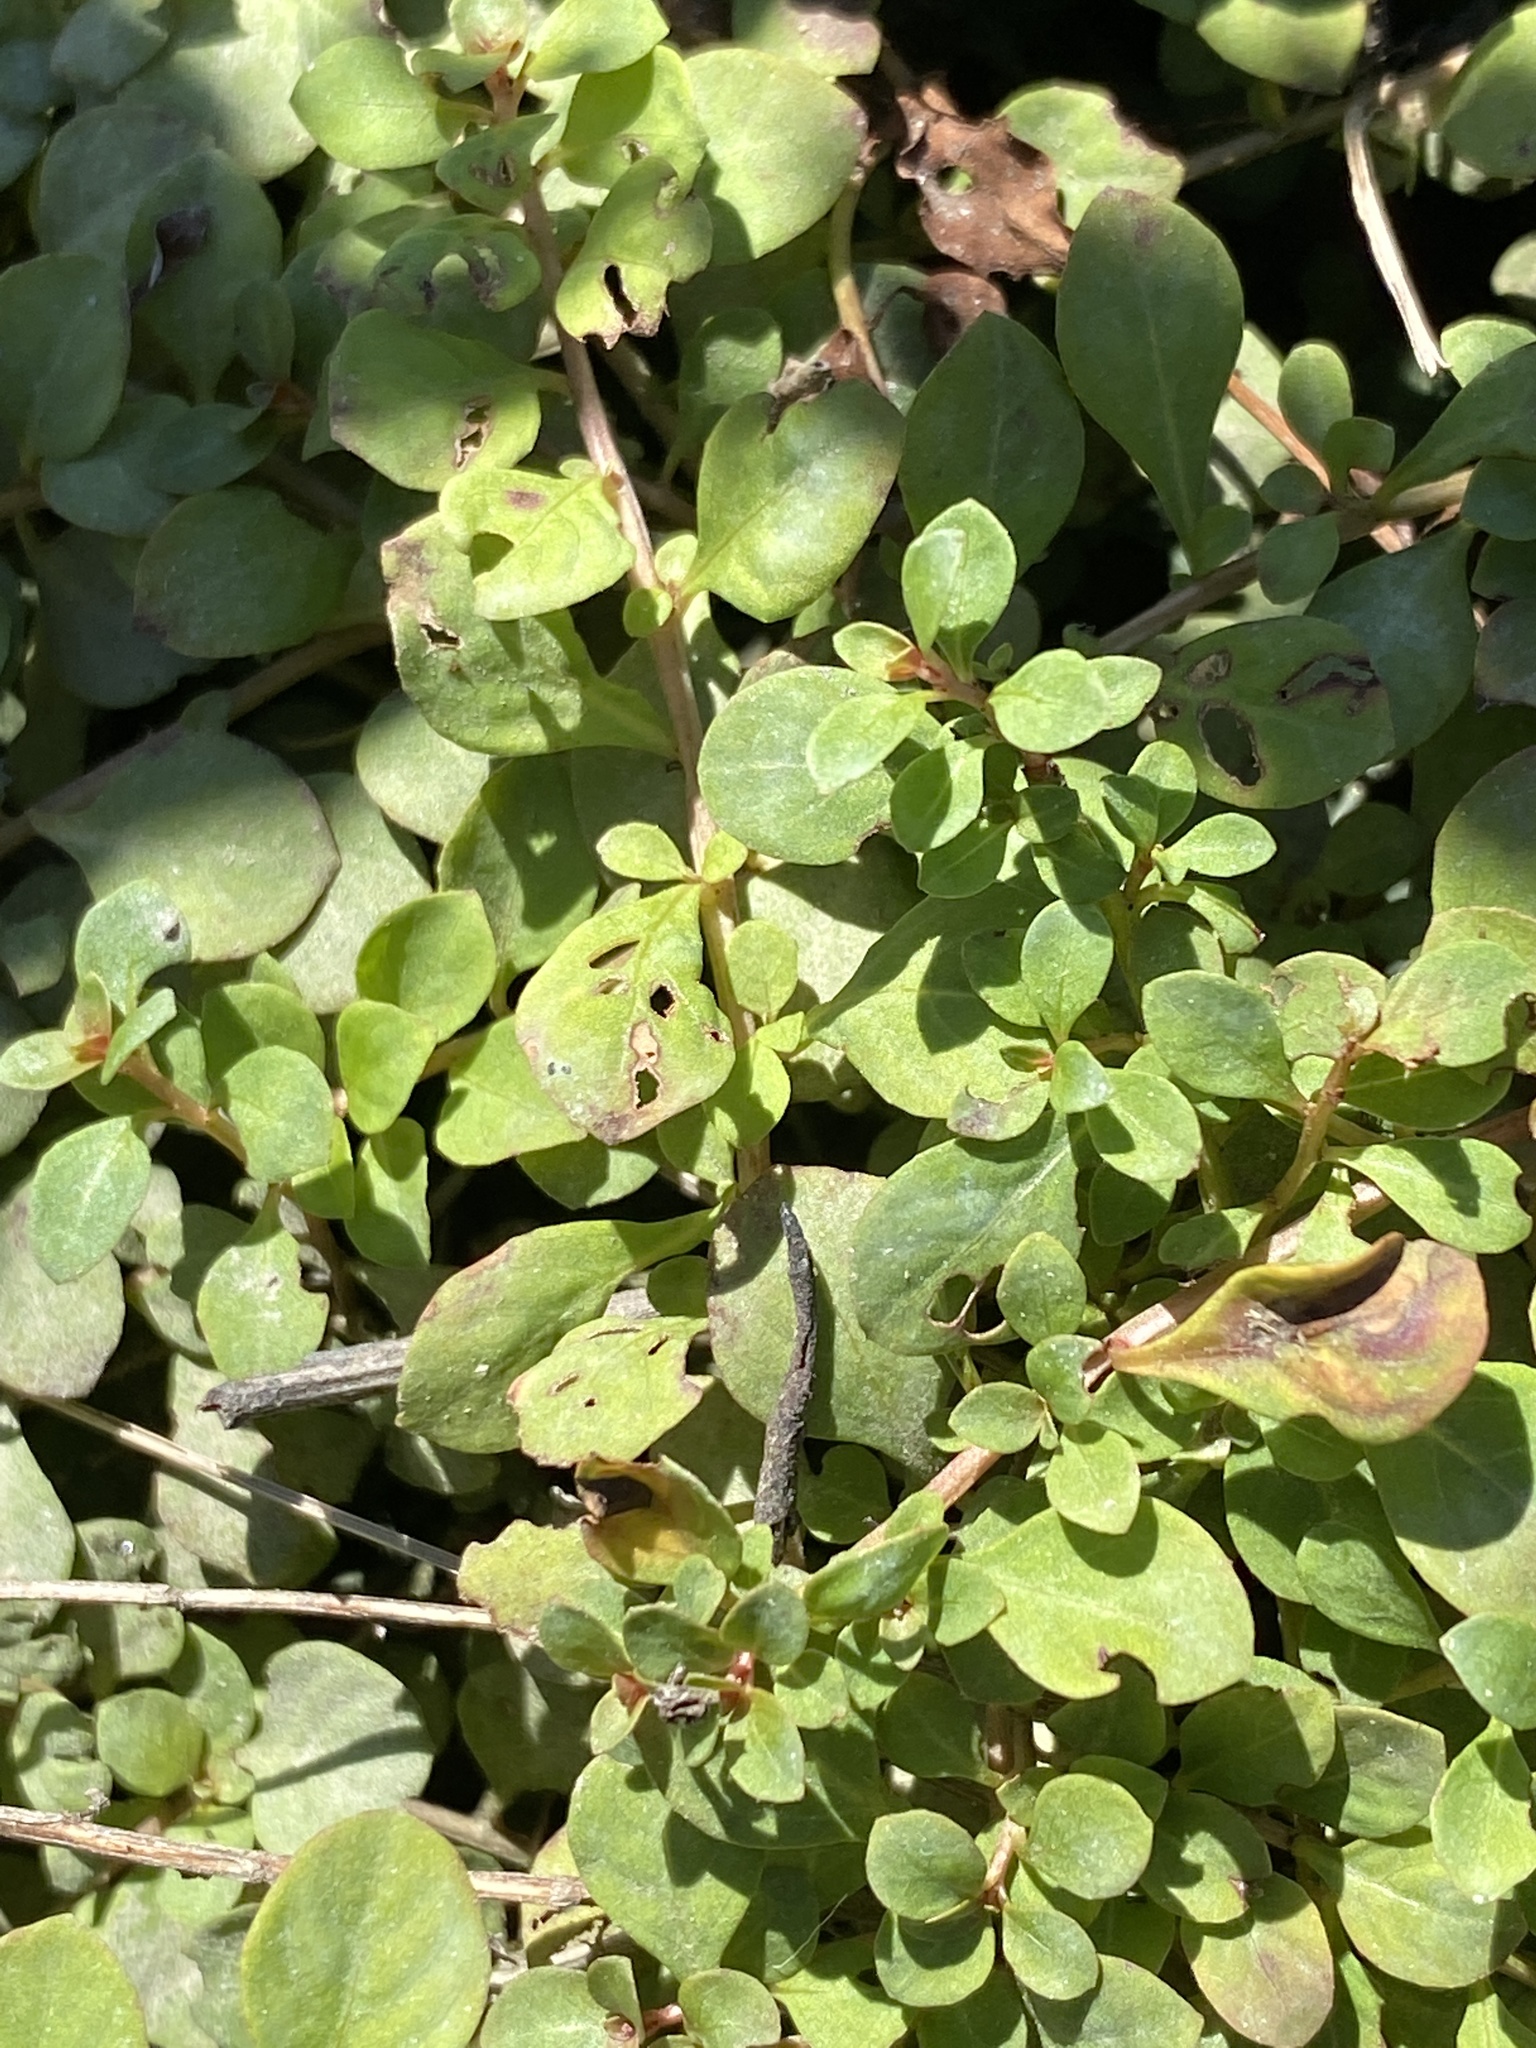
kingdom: Plantae
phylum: Tracheophyta
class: Magnoliopsida
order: Myrtales
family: Onagraceae
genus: Ludwigia
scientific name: Ludwigia microcarpa
